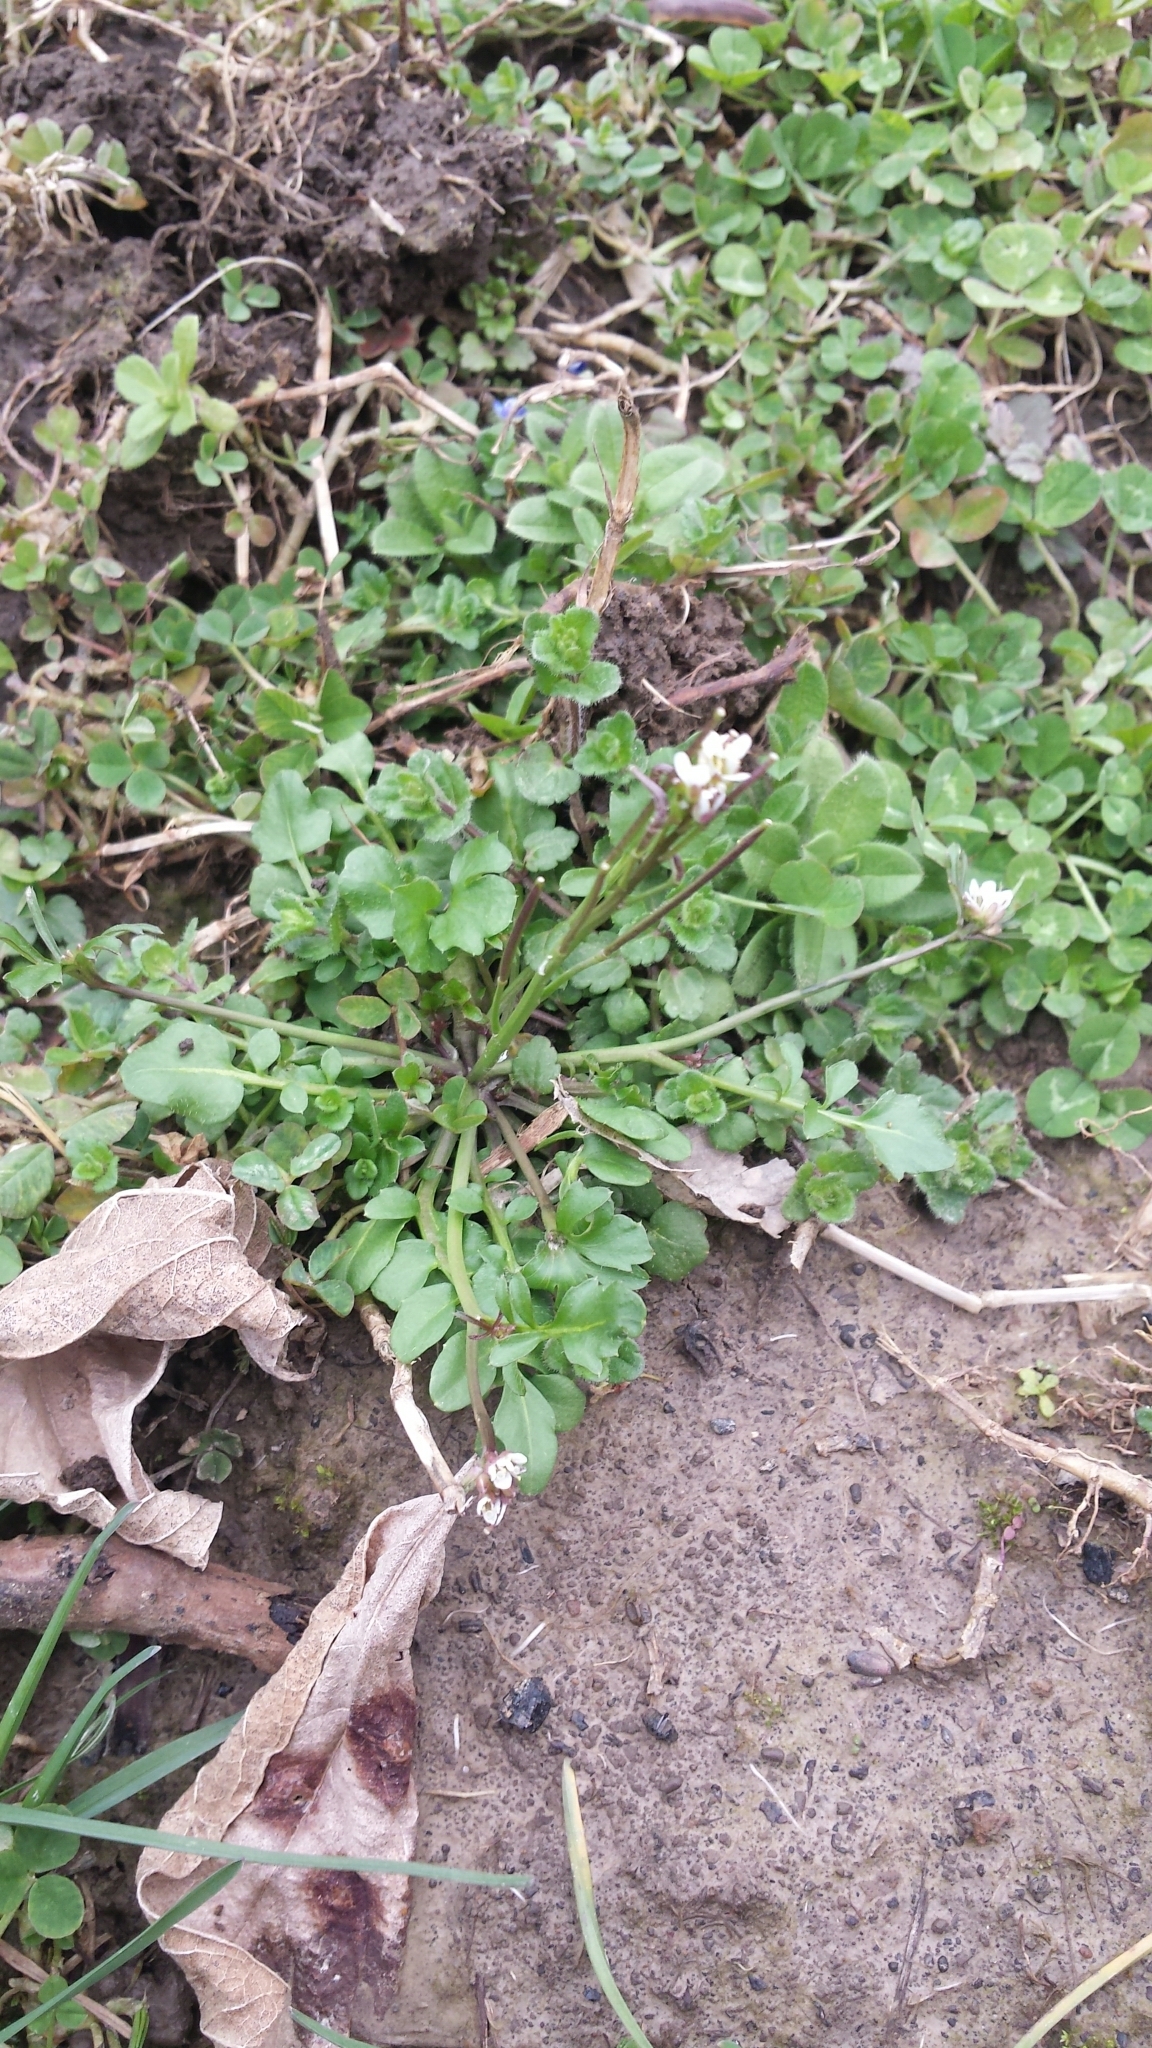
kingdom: Plantae
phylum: Tracheophyta
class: Magnoliopsida
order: Brassicales
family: Brassicaceae
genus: Cardamine
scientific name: Cardamine hirsuta
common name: Hairy bittercress
